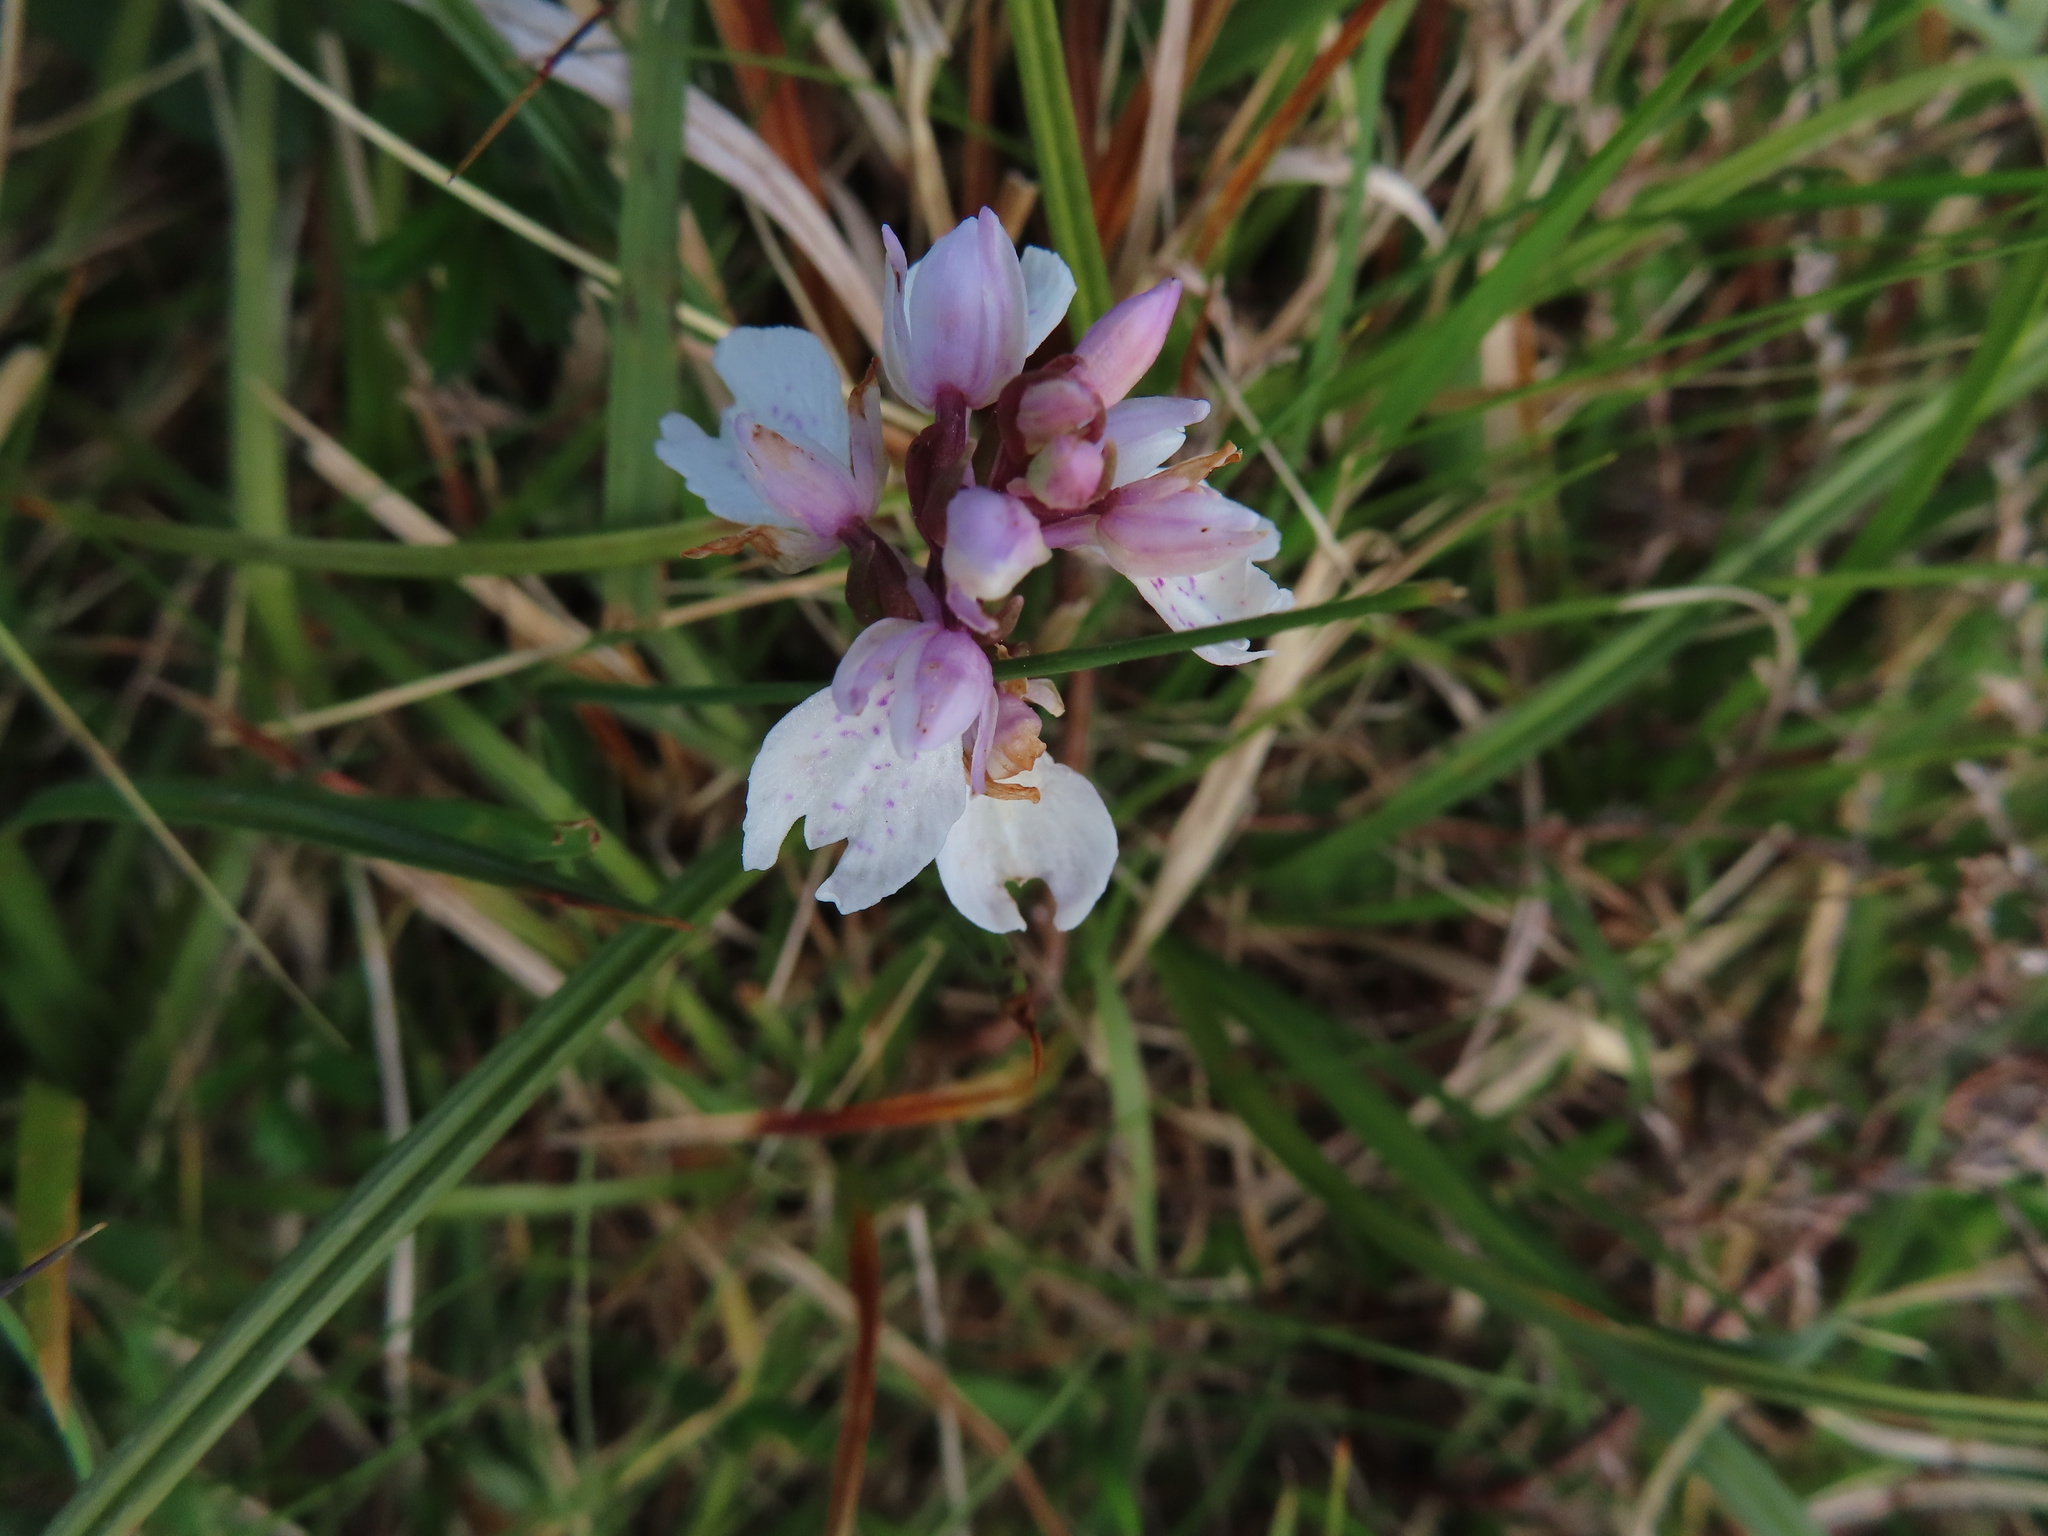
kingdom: Plantae
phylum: Tracheophyta
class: Liliopsida
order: Asparagales
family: Orchidaceae
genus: Dactylorhiza
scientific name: Dactylorhiza maculata
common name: Heath spotted-orchid
